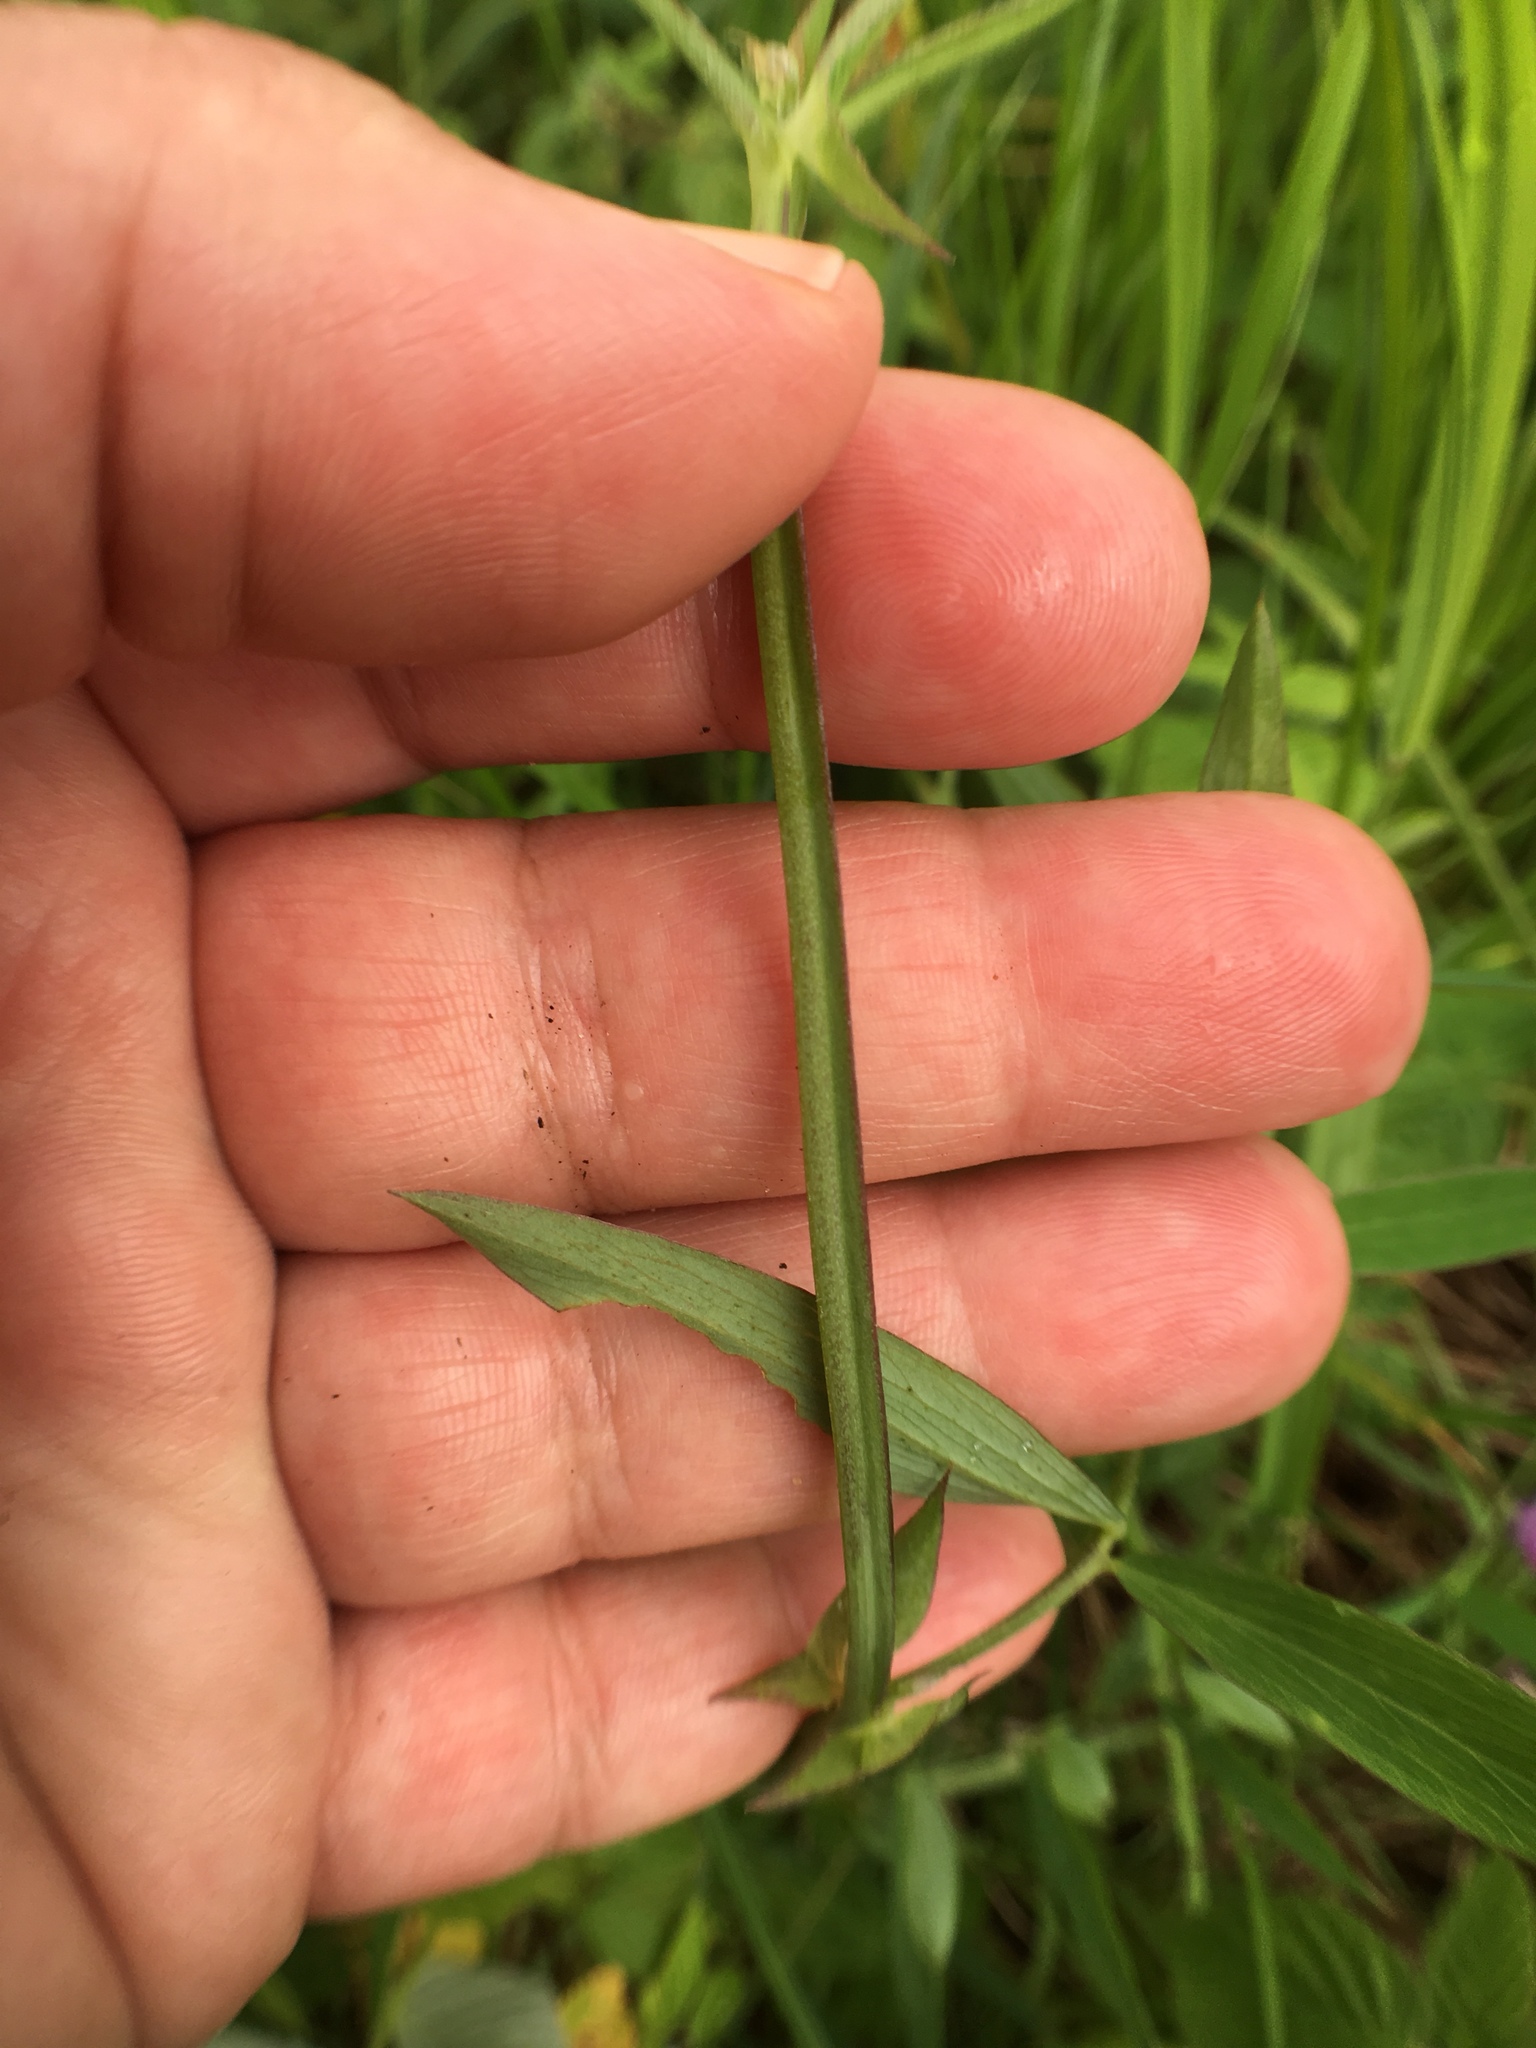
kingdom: Plantae
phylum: Tracheophyta
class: Magnoliopsida
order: Fabales
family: Fabaceae
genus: Lathyrus
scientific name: Lathyrus palustris
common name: Marsh pea
